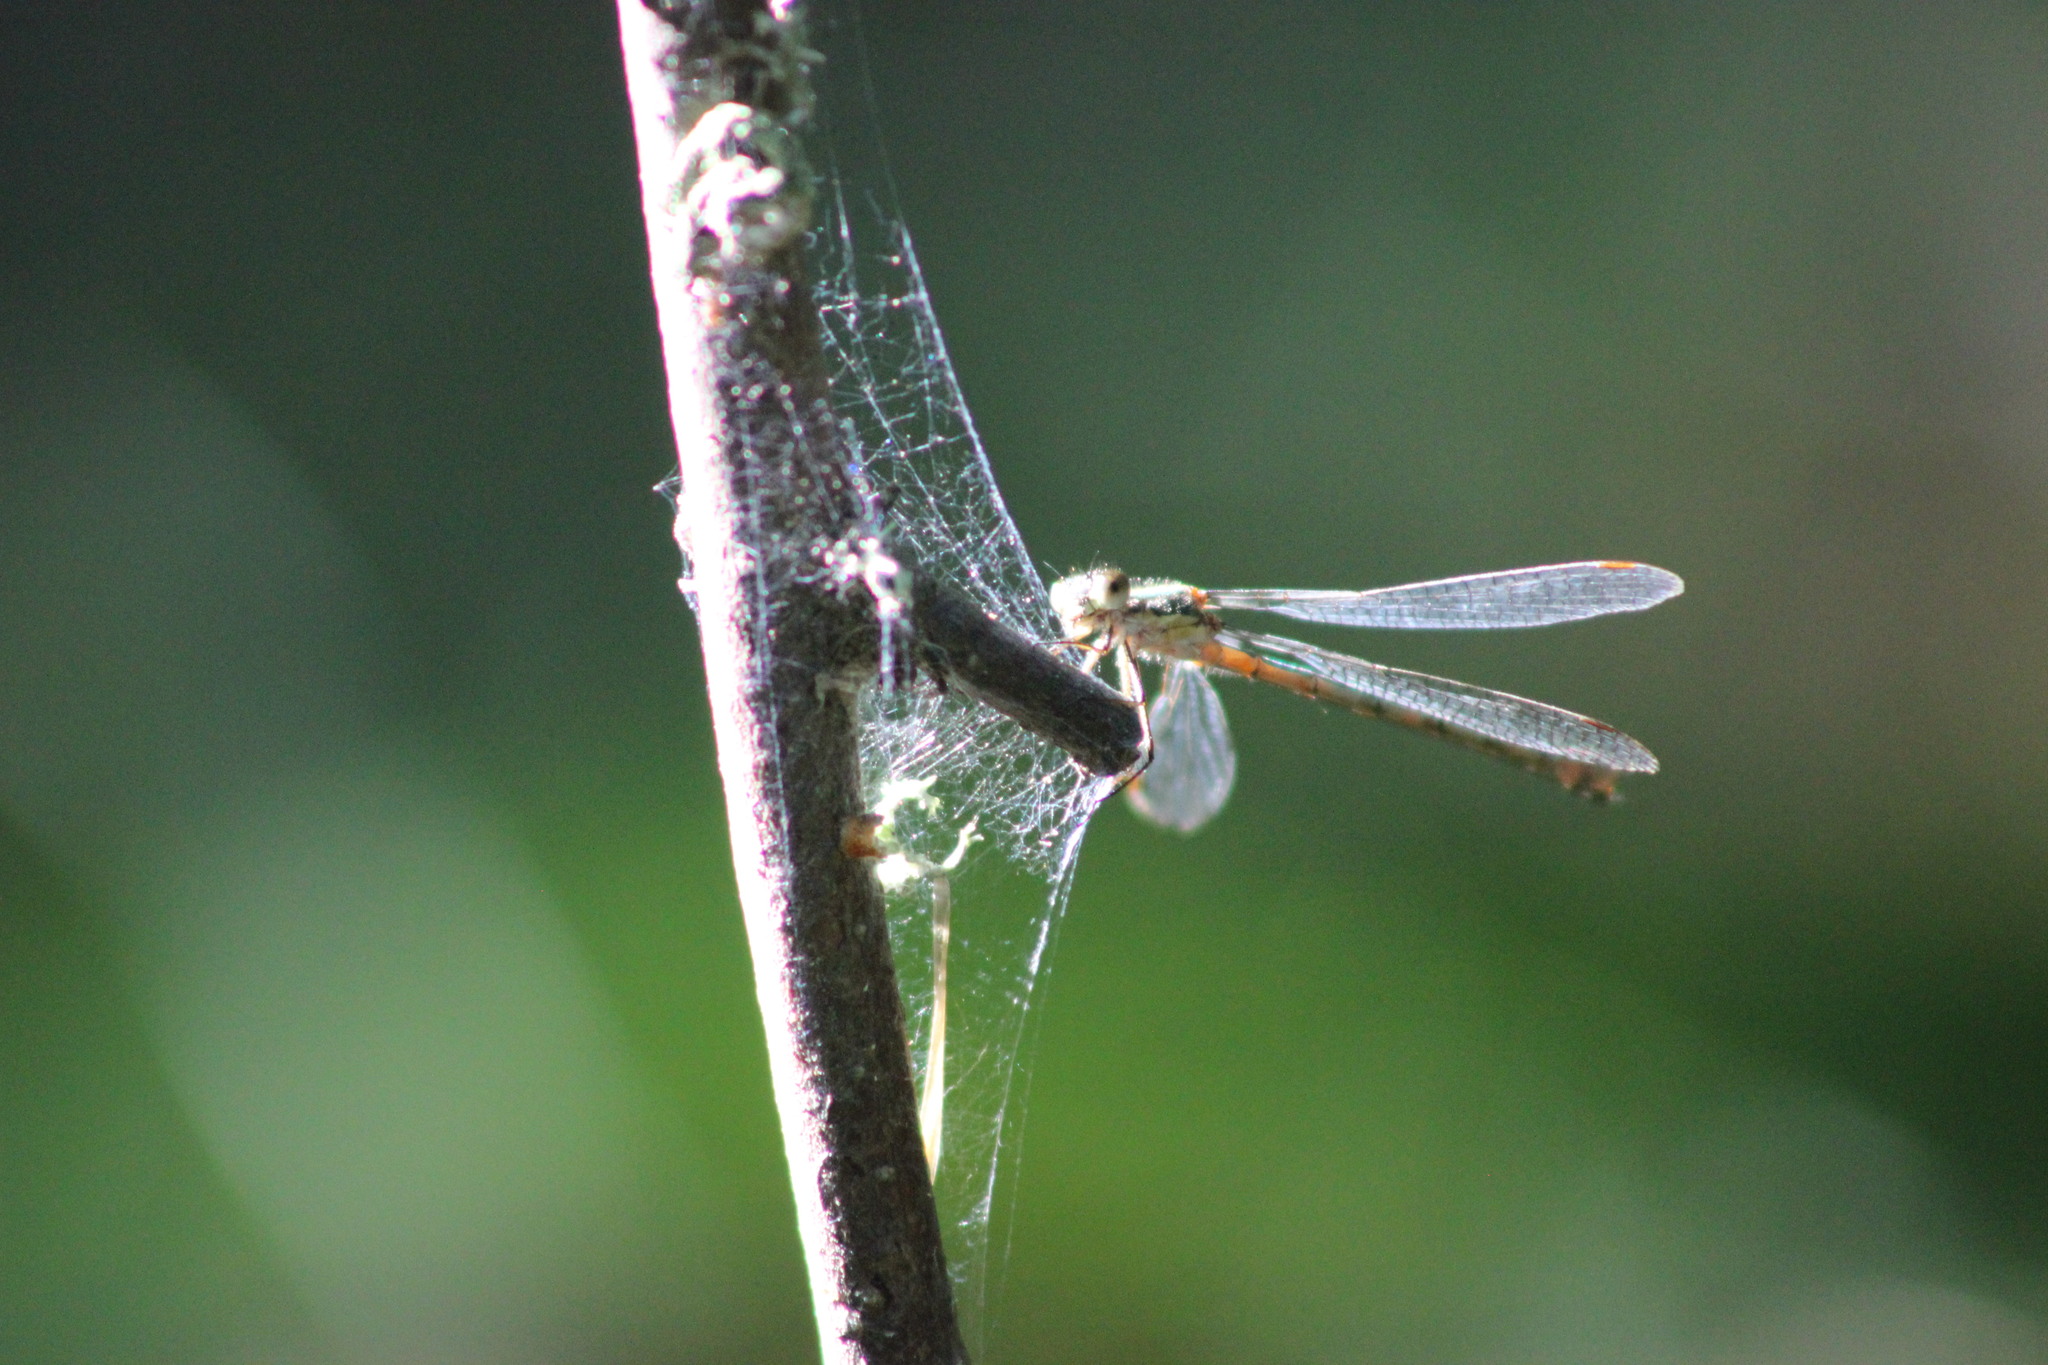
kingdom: Animalia
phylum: Arthropoda
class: Insecta
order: Odonata
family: Lestidae
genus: Lestes
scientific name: Lestes dryas
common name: Scarce emerald damselfly
